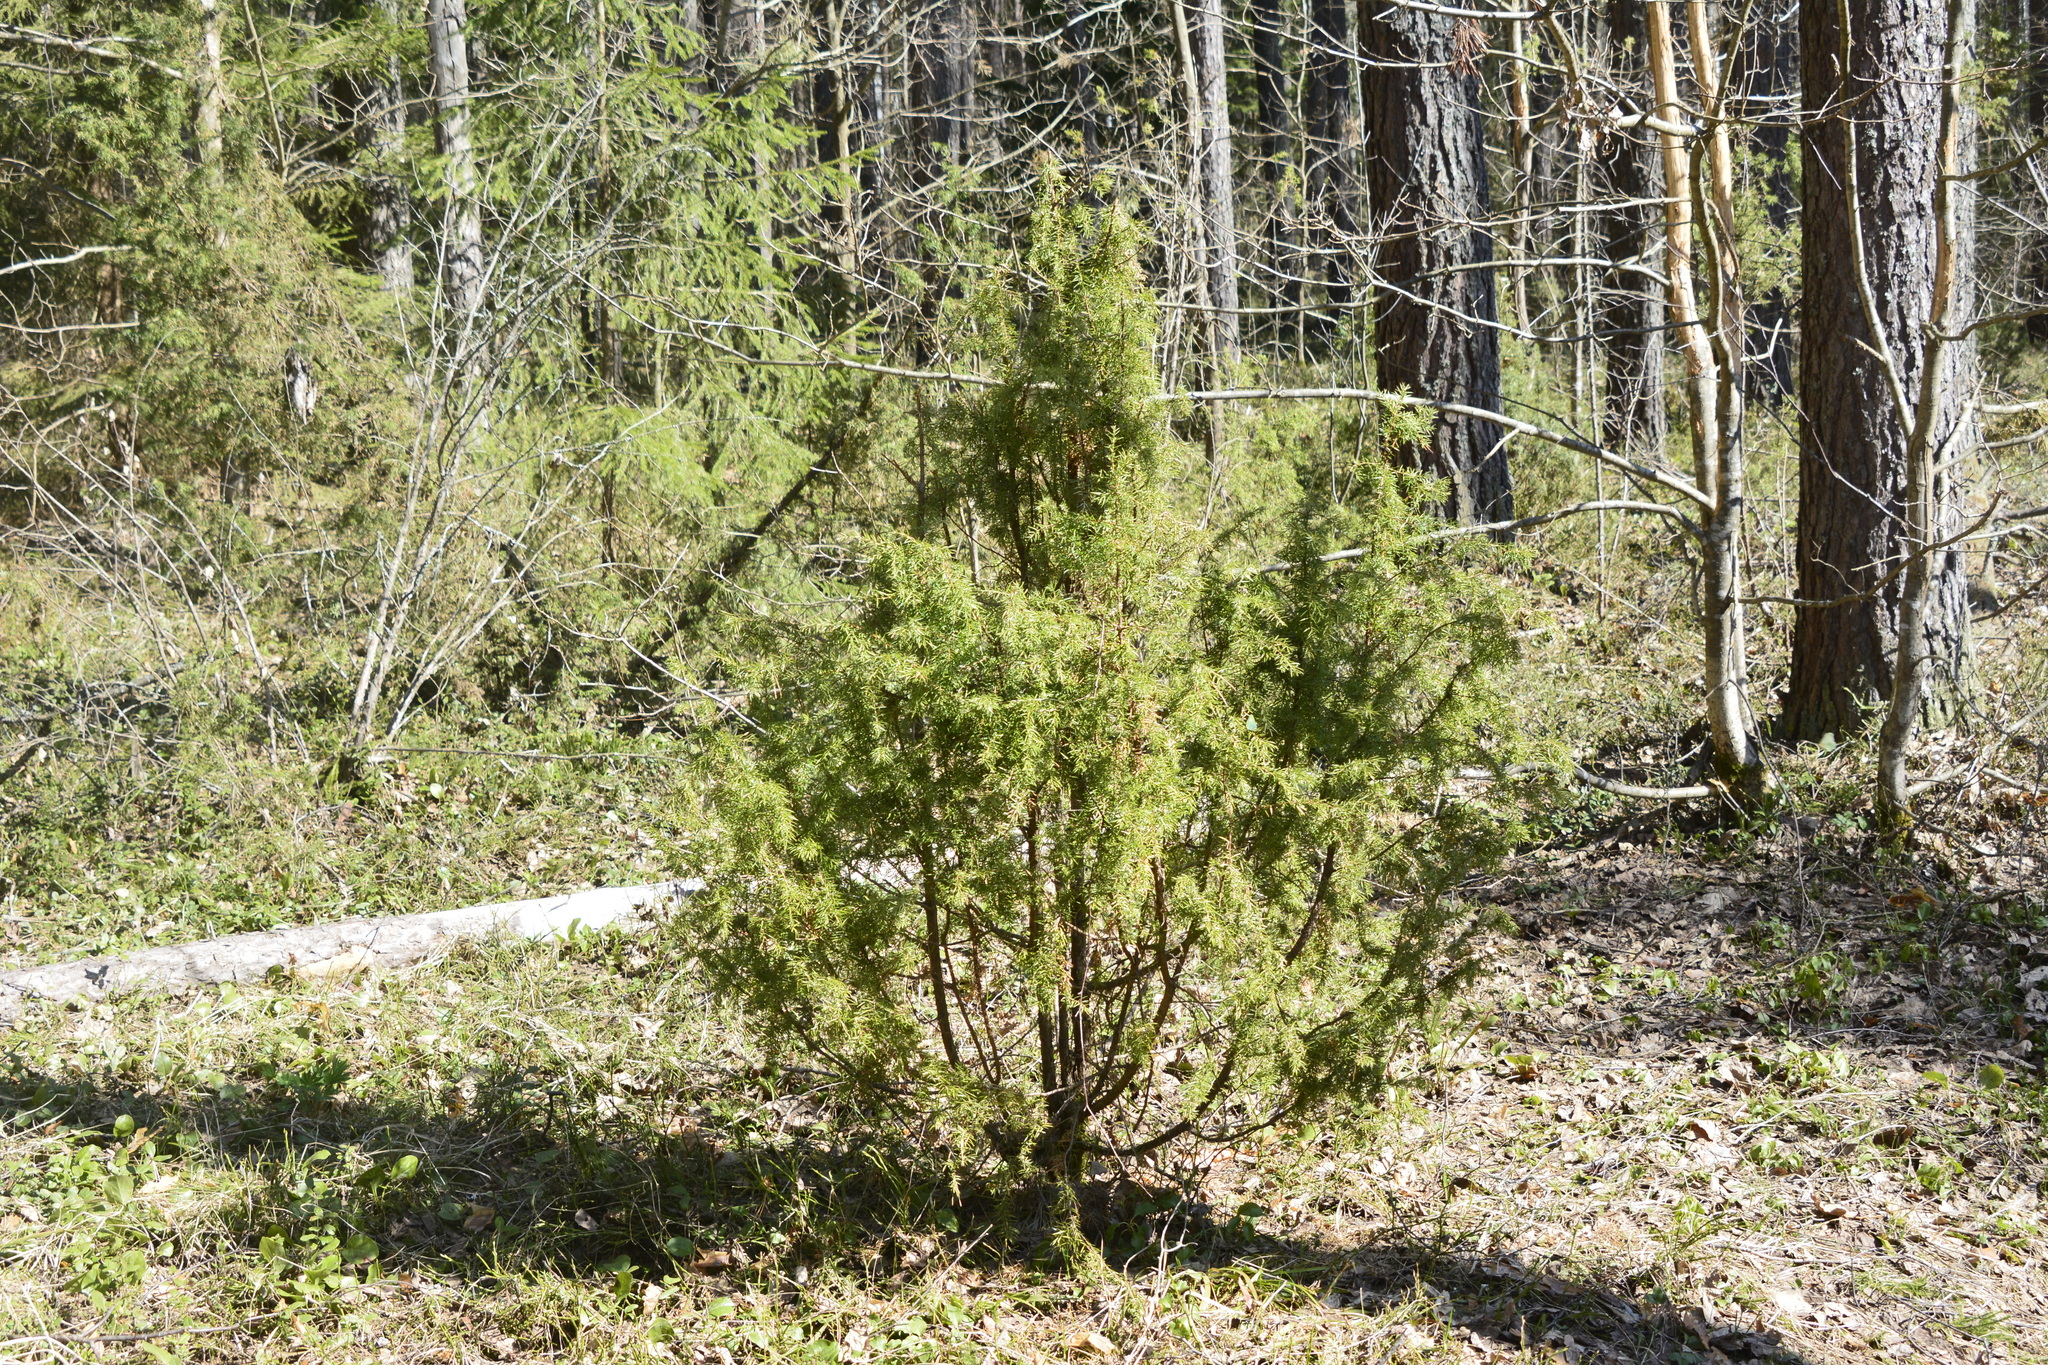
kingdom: Plantae
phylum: Tracheophyta
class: Pinopsida
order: Pinales
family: Cupressaceae
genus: Juniperus
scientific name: Juniperus communis
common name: Common juniper
